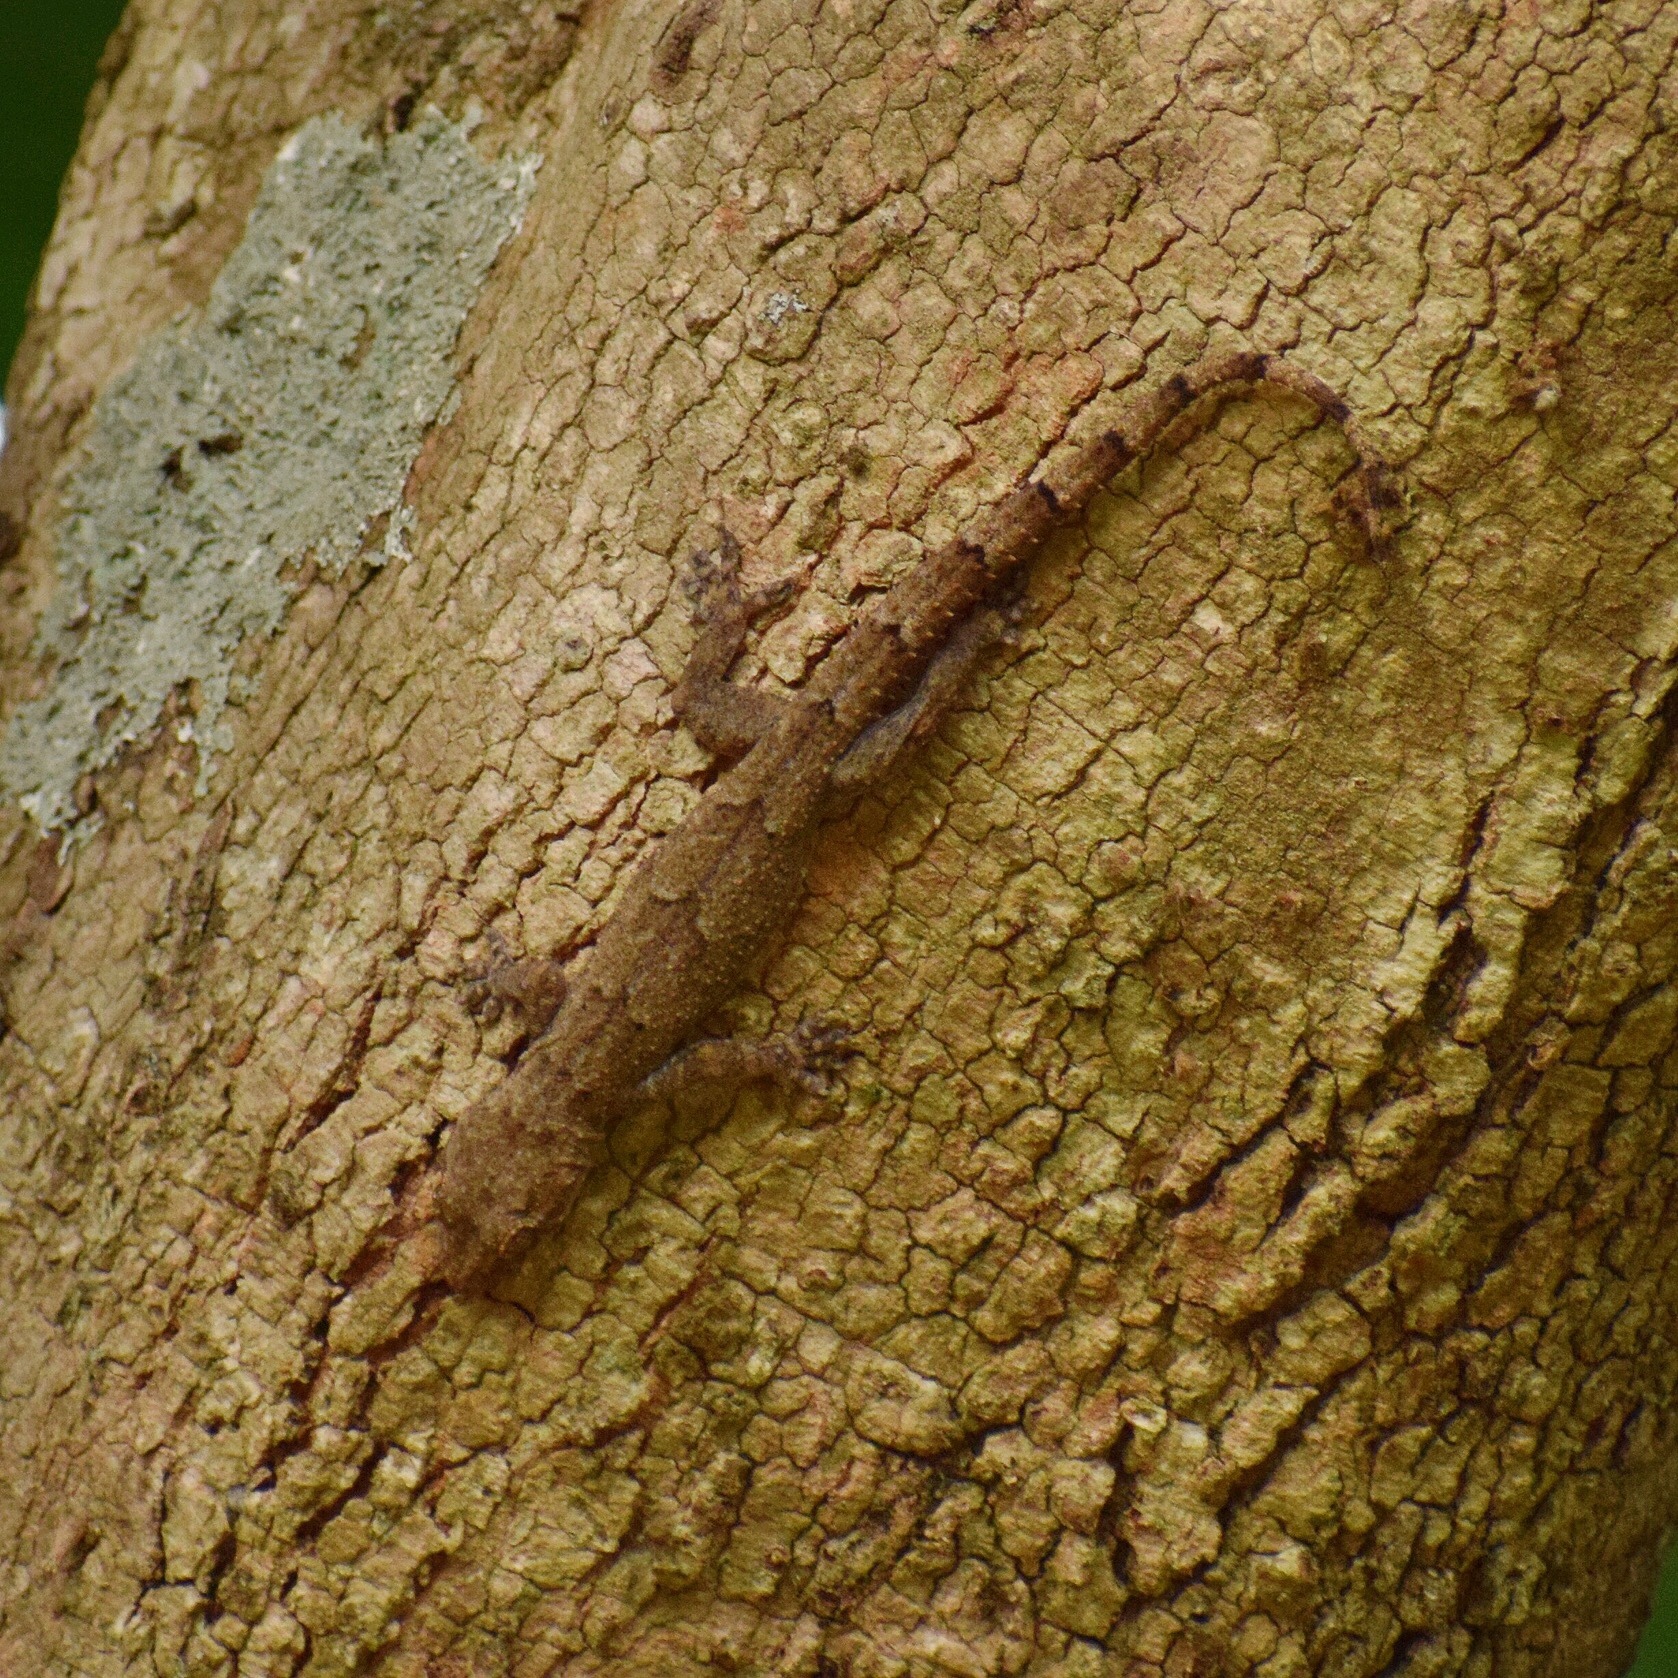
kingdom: Animalia
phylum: Chordata
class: Squamata
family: Gekkonidae
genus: Hemidactylus
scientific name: Hemidactylus mabouia
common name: House gecko
